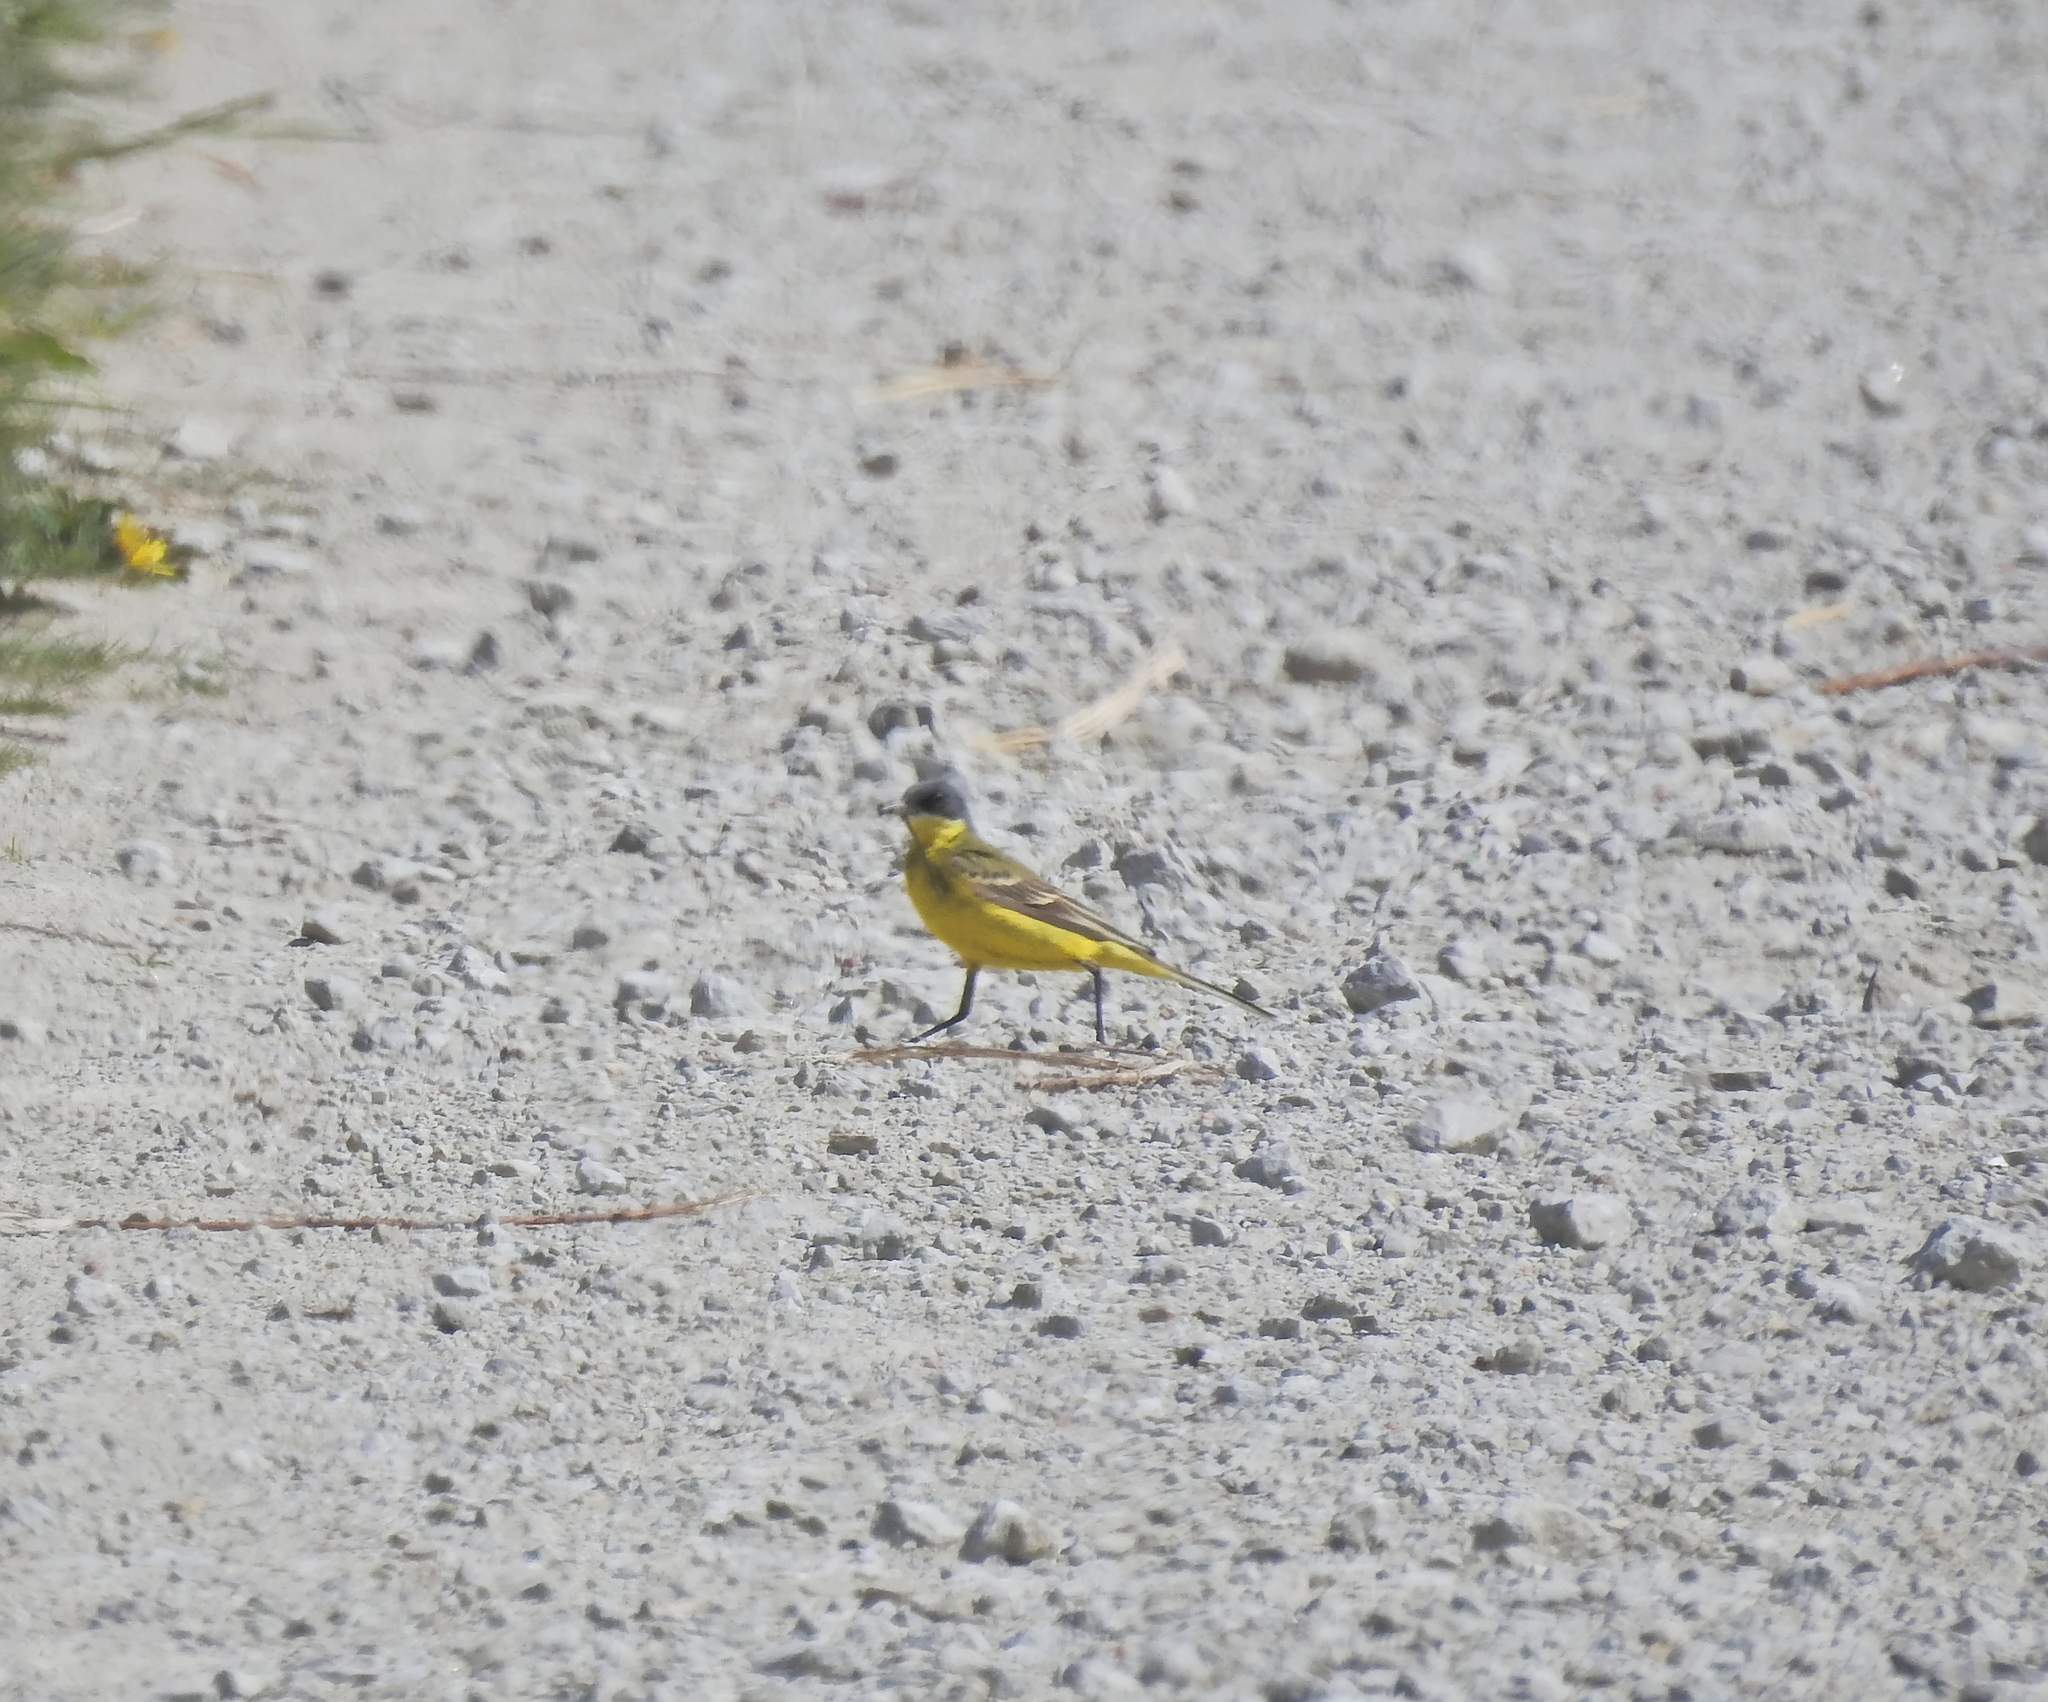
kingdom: Animalia
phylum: Chordata
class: Aves
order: Passeriformes
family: Motacillidae
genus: Motacilla
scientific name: Motacilla flava
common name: Western yellow wagtail
